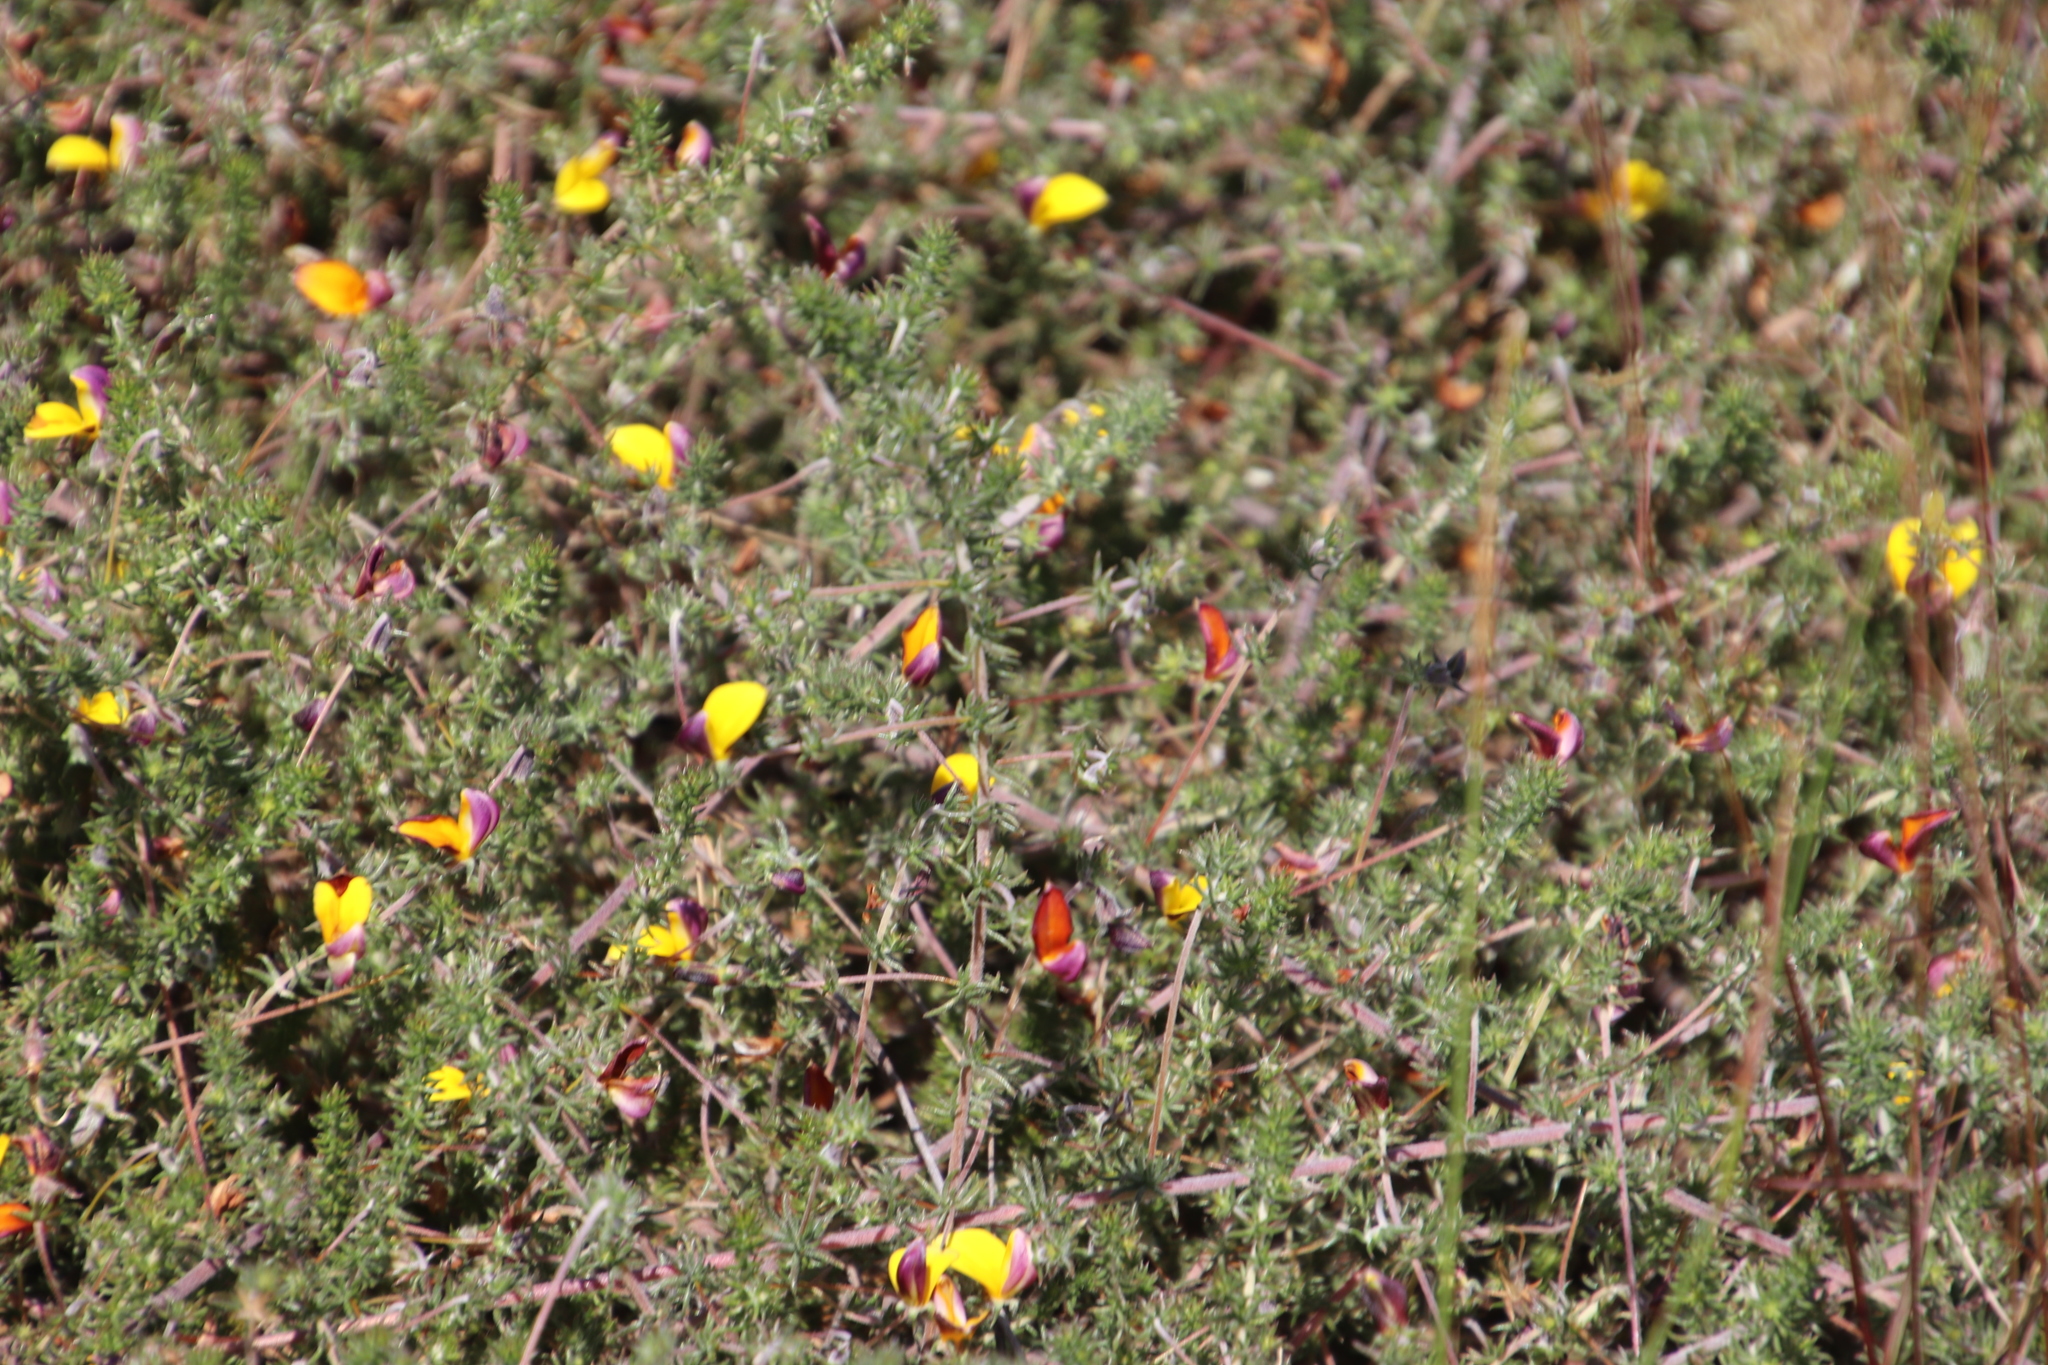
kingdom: Plantae
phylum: Tracheophyta
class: Magnoliopsida
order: Fabales
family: Fabaceae
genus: Aspalathus
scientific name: Aspalathus retroflexa
